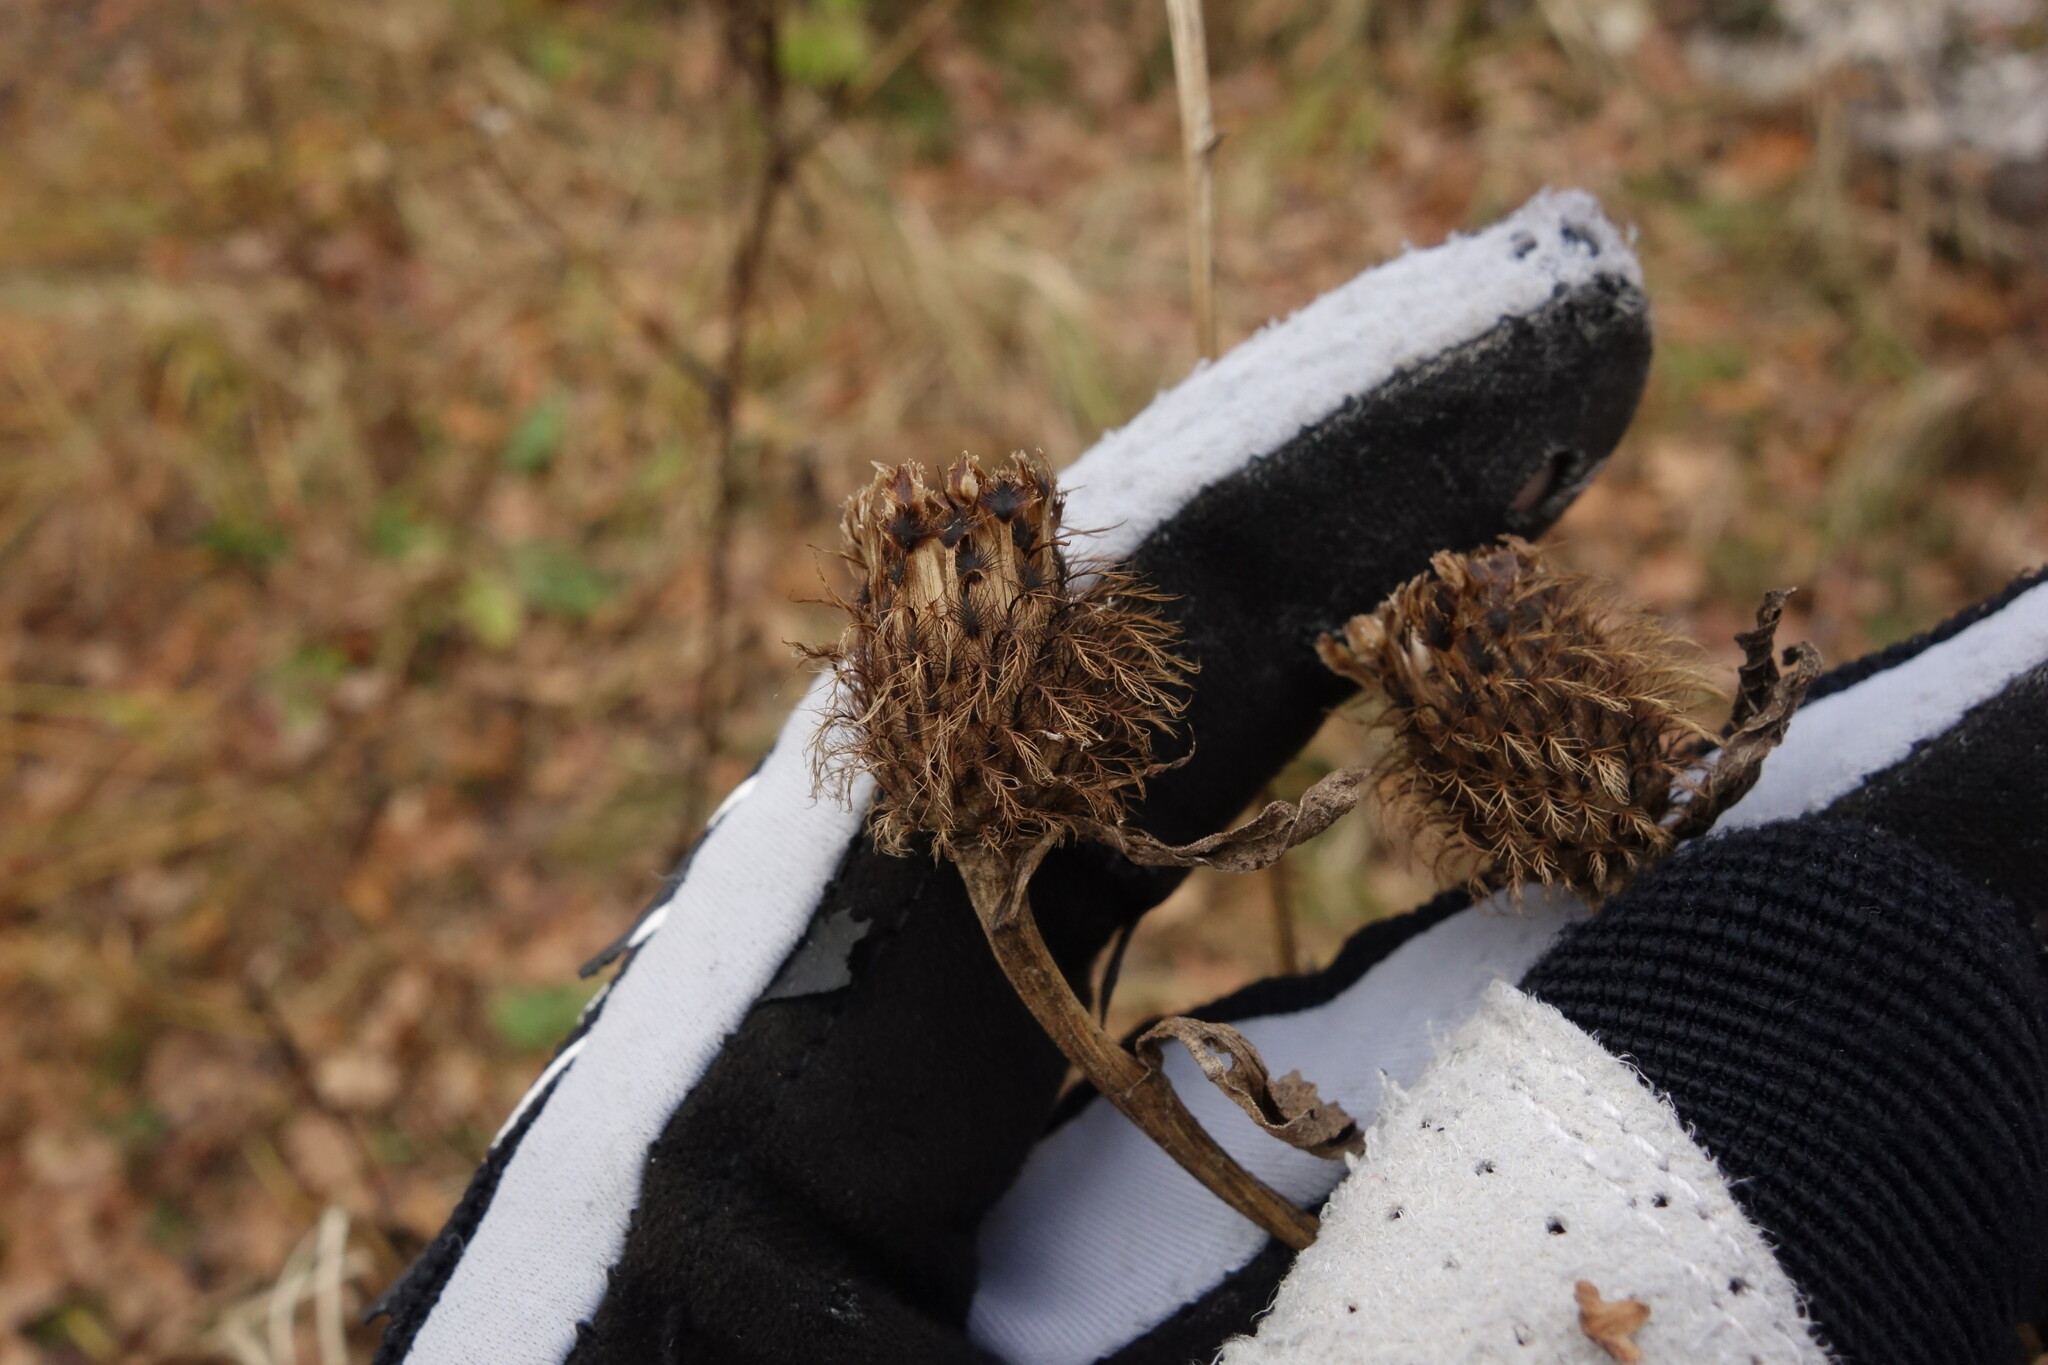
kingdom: Plantae
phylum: Tracheophyta
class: Magnoliopsida
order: Asterales
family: Asteraceae
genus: Centaurea
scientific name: Centaurea pseudophrygia
